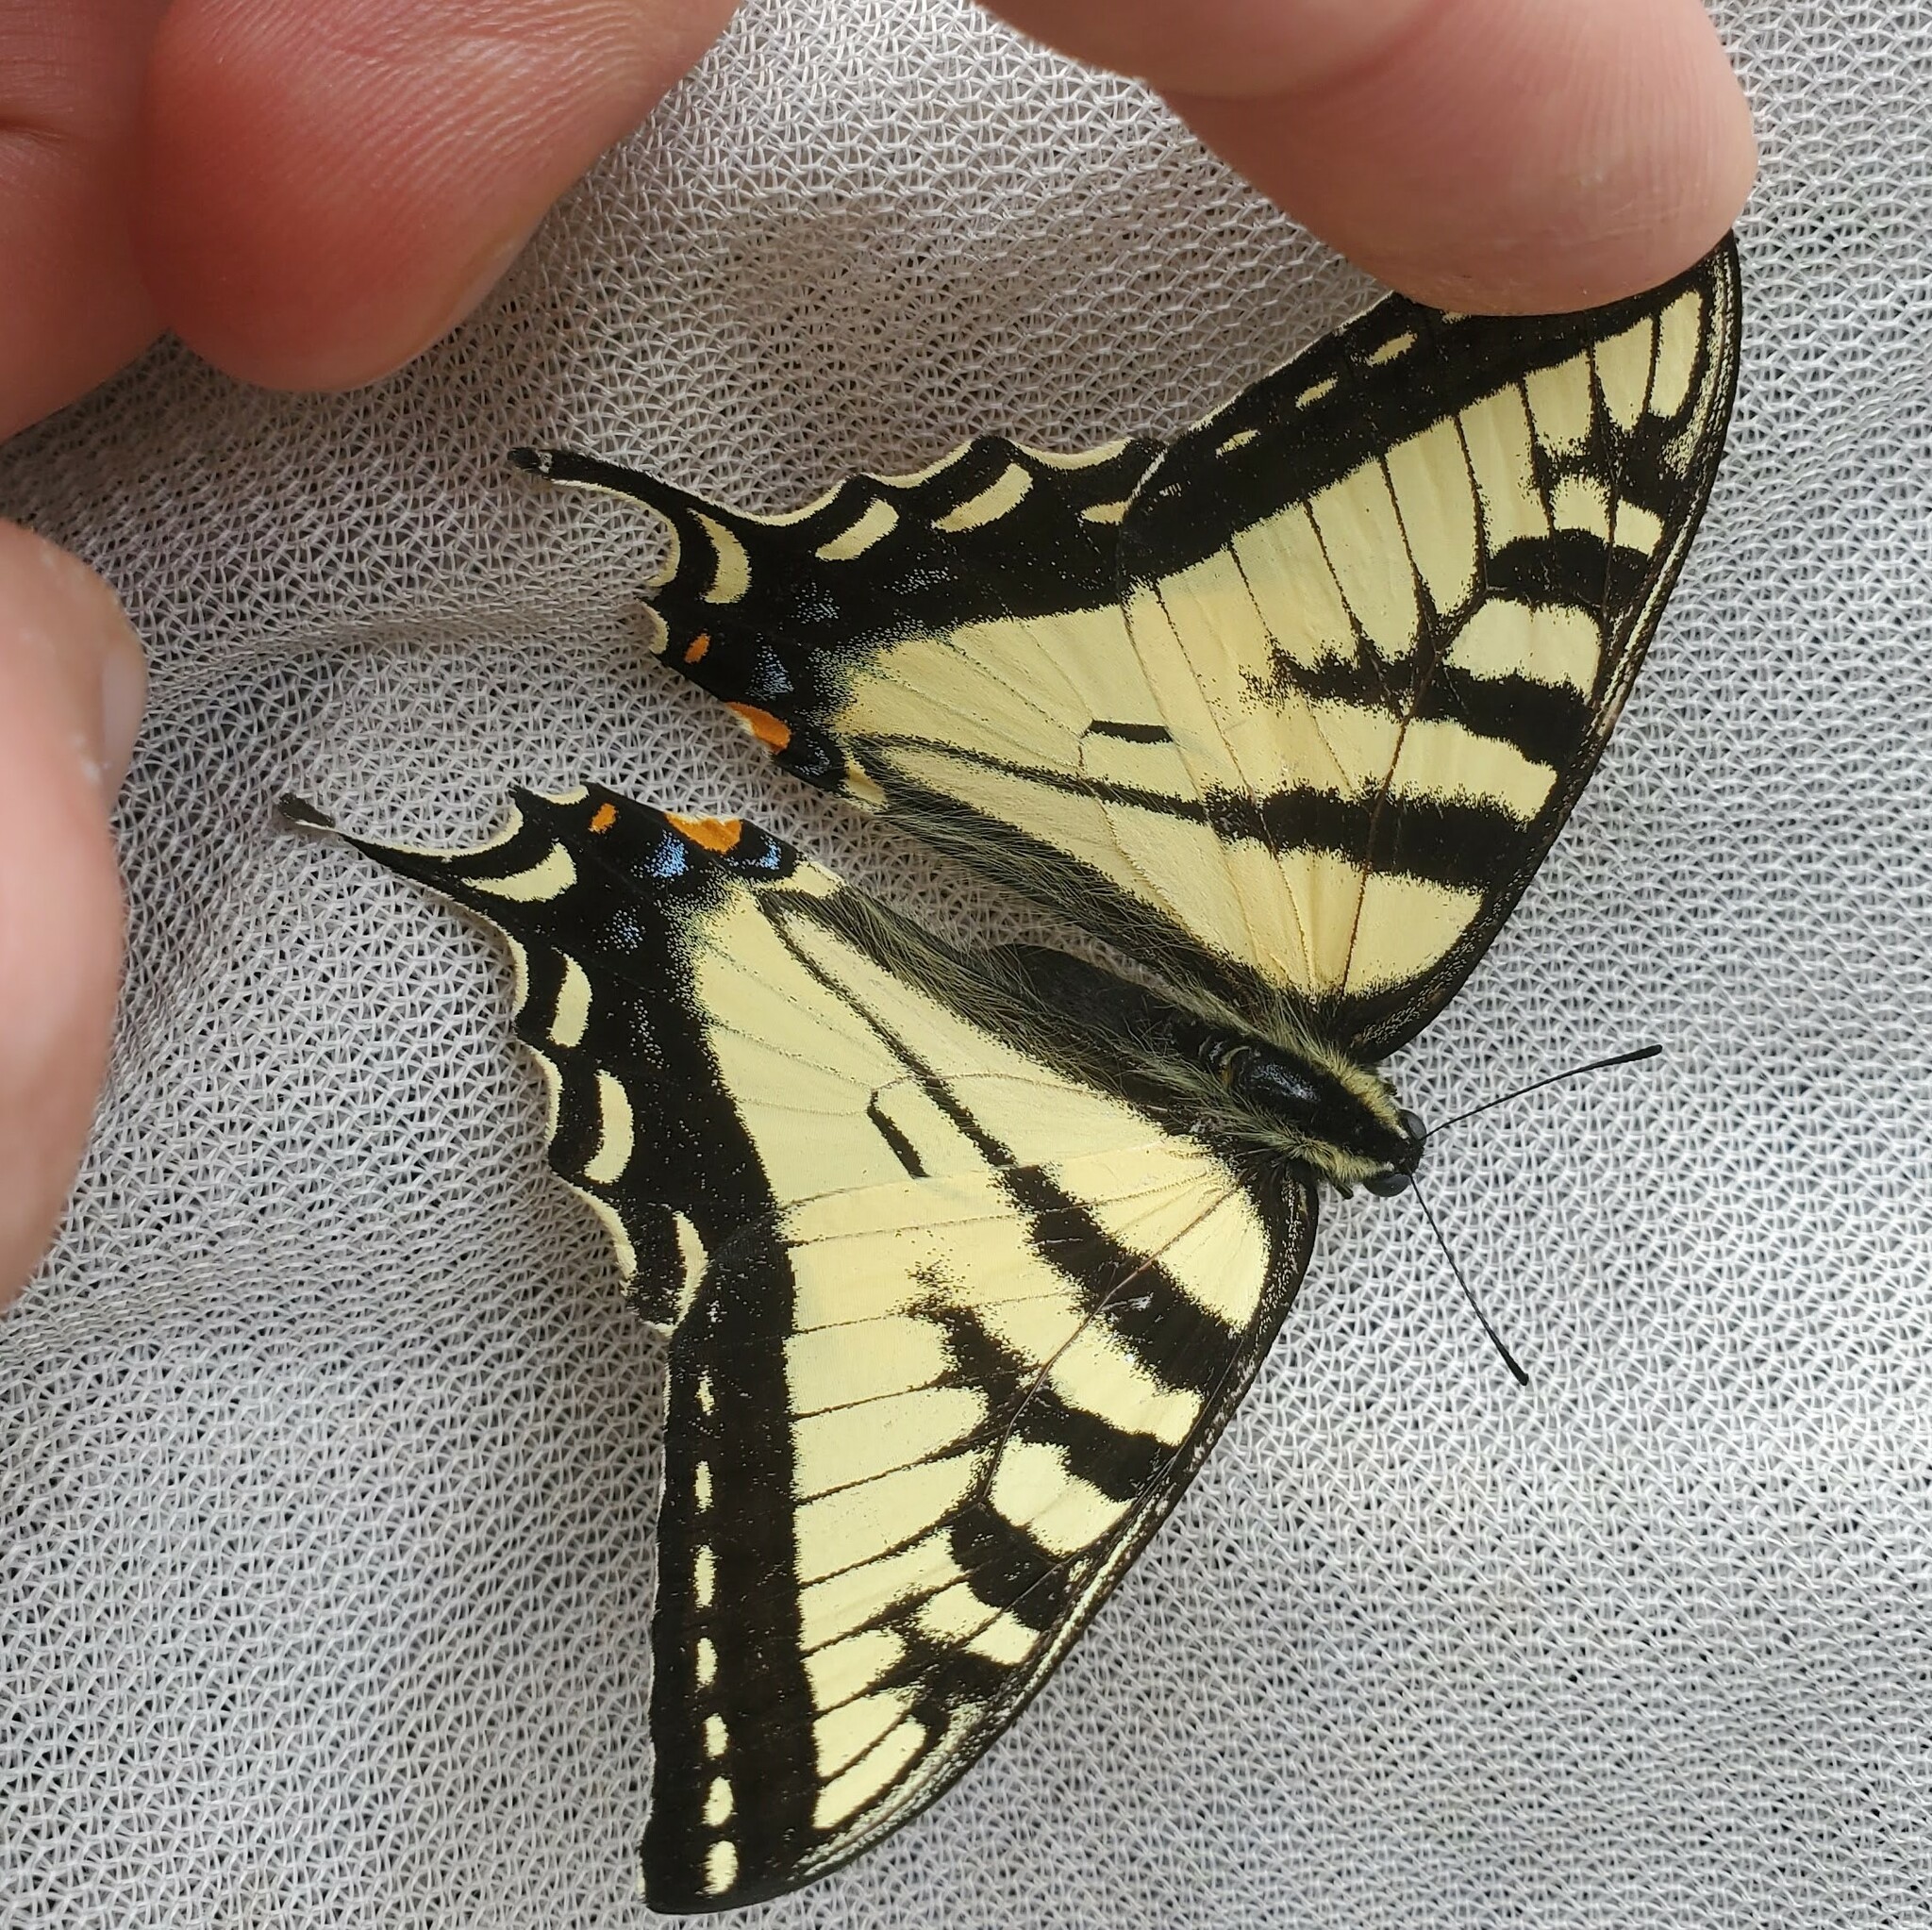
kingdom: Animalia
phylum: Arthropoda
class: Insecta
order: Lepidoptera
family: Papilionidae
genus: Papilio
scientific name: Papilio canadensis
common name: Canadian tiger swallowtail
